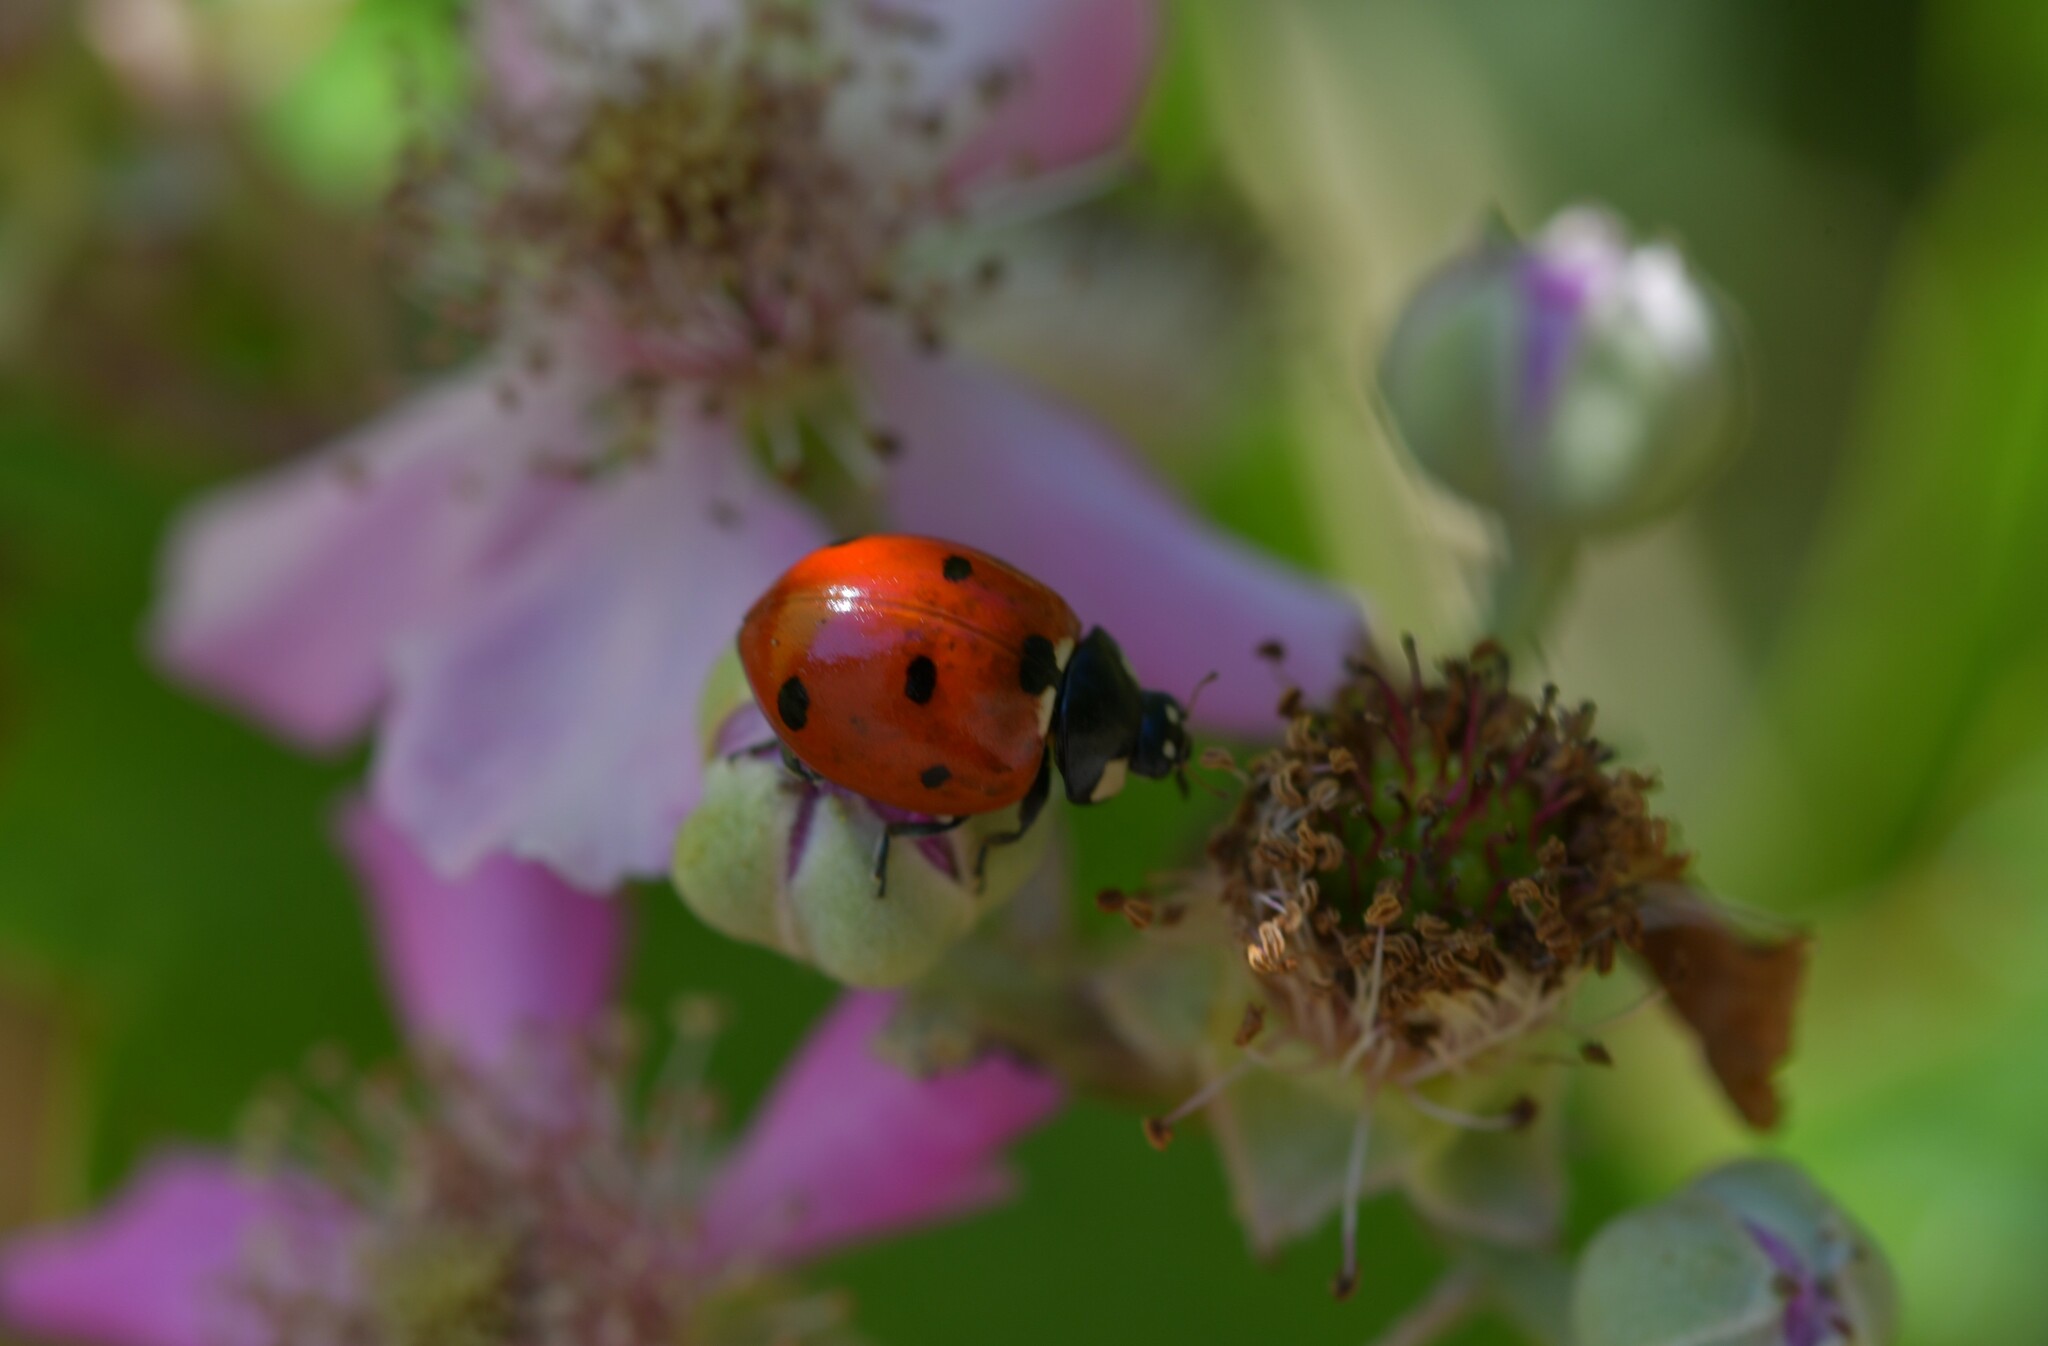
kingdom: Animalia
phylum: Arthropoda
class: Insecta
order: Coleoptera
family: Coccinellidae
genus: Coccinella
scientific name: Coccinella septempunctata
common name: Sevenspotted lady beetle
